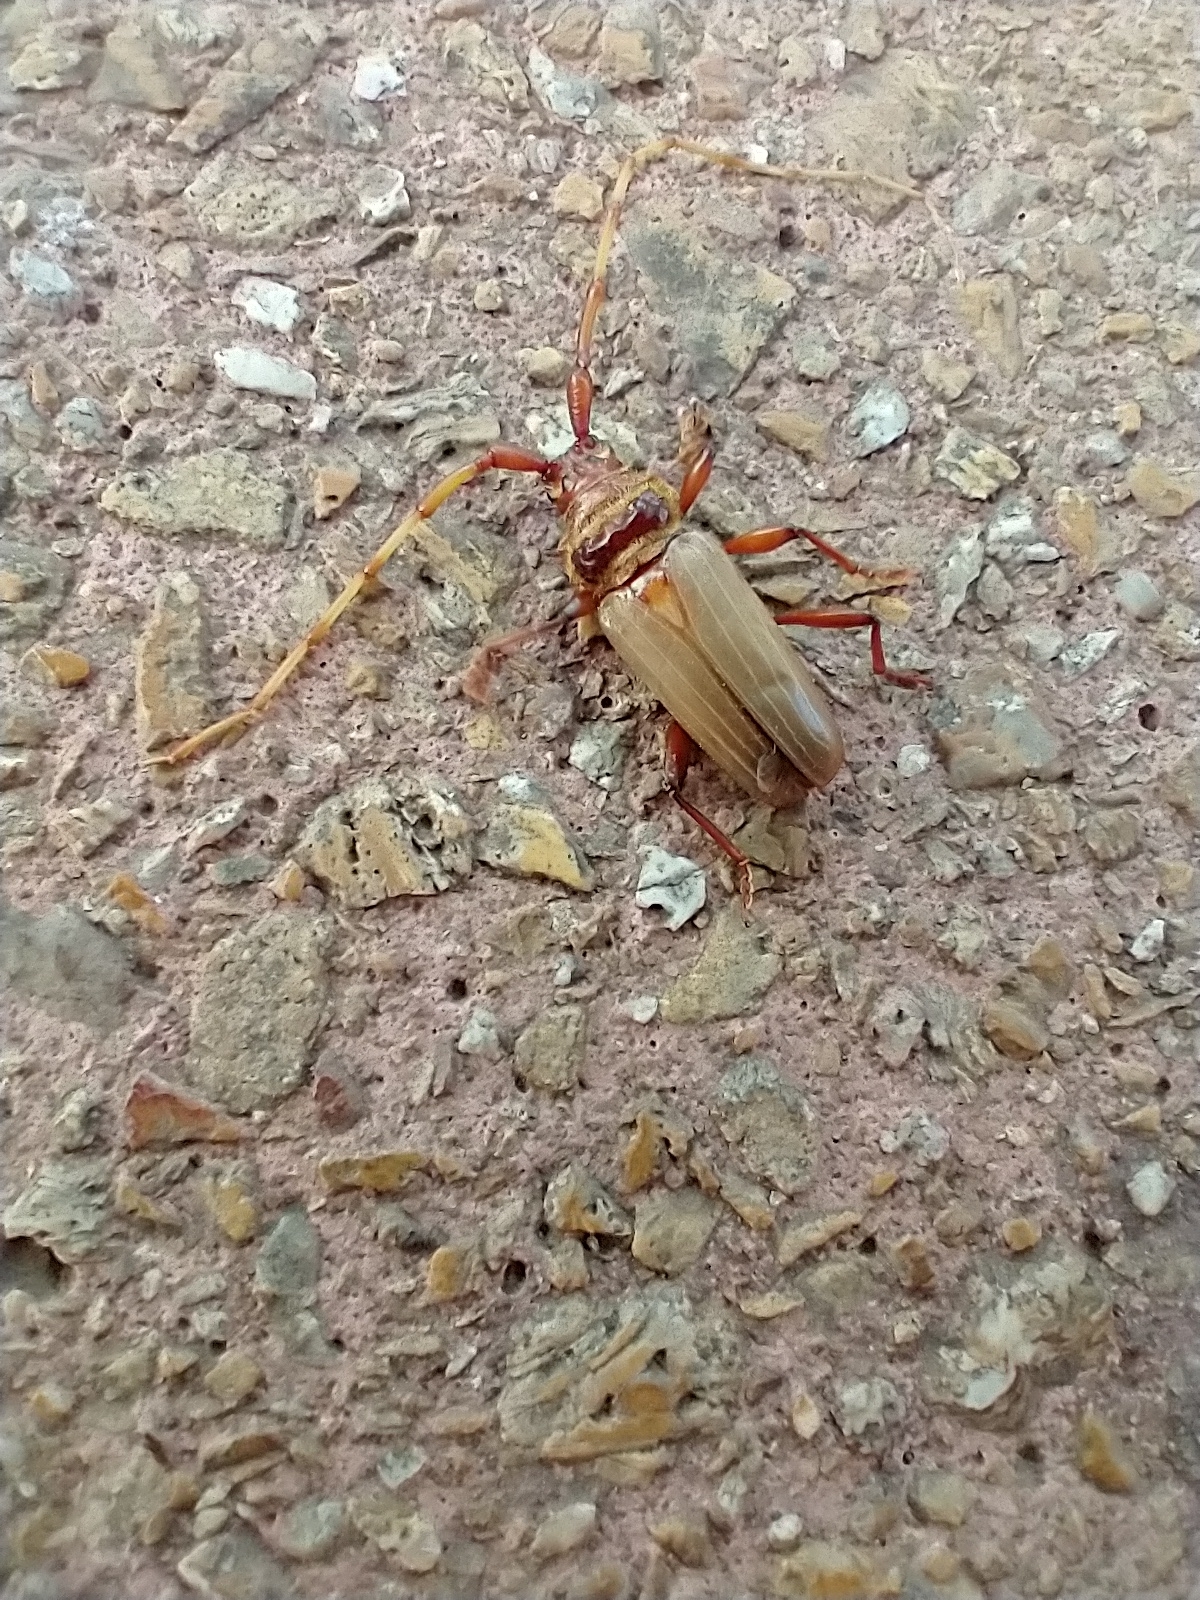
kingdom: Animalia
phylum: Arthropoda
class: Insecta
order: Coleoptera
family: Cerambycidae
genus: Retrachydes
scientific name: Retrachydes thoracicus
